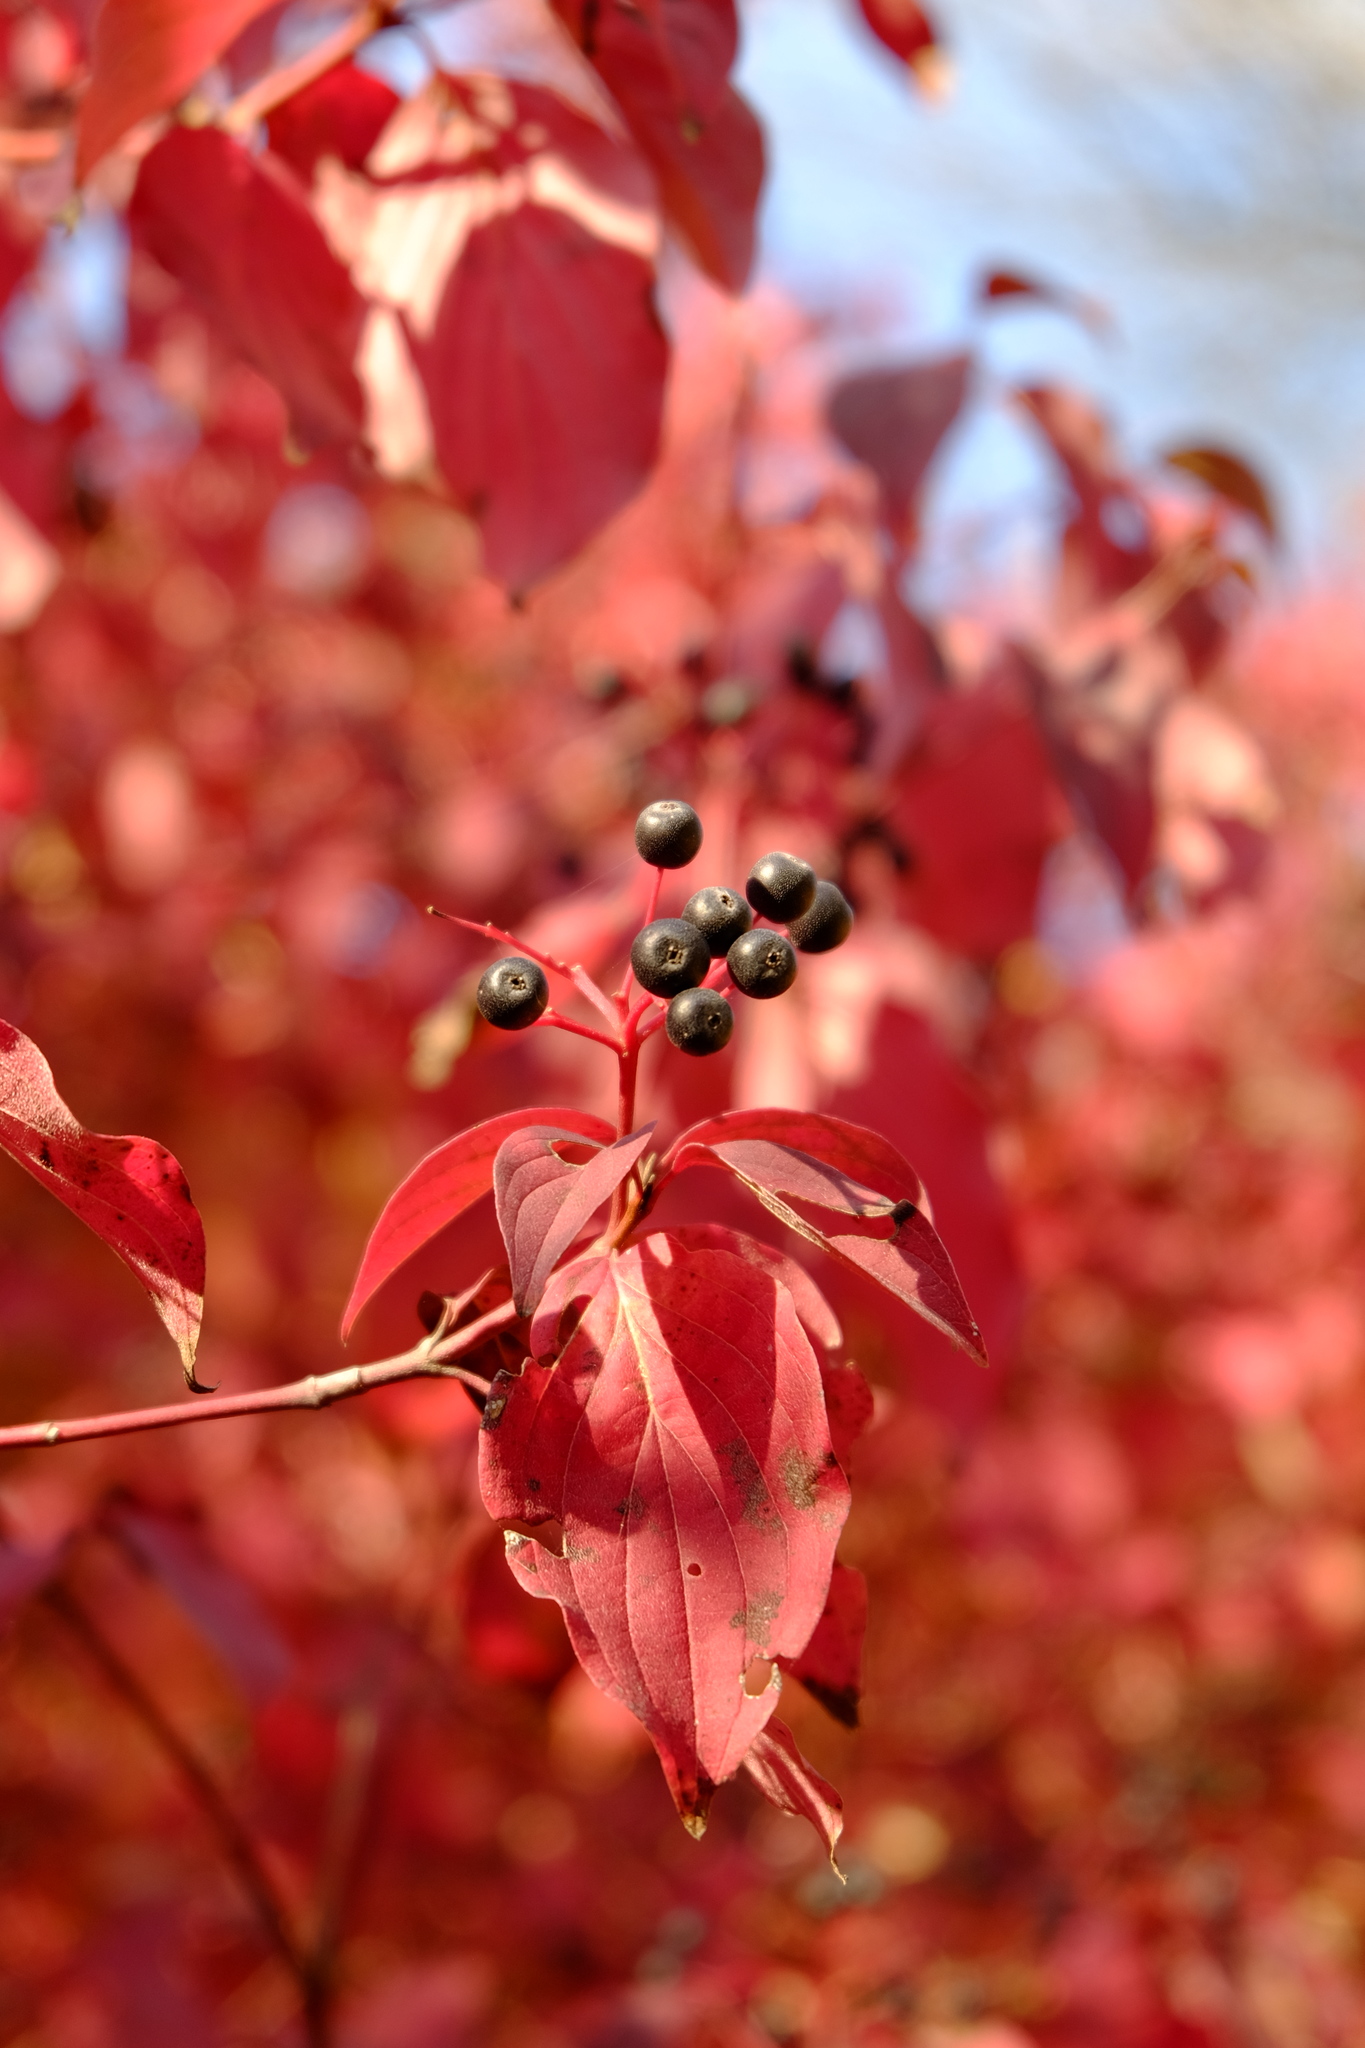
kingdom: Plantae
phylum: Tracheophyta
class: Magnoliopsida
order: Cornales
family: Cornaceae
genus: Cornus
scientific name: Cornus sanguinea
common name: Dogwood
